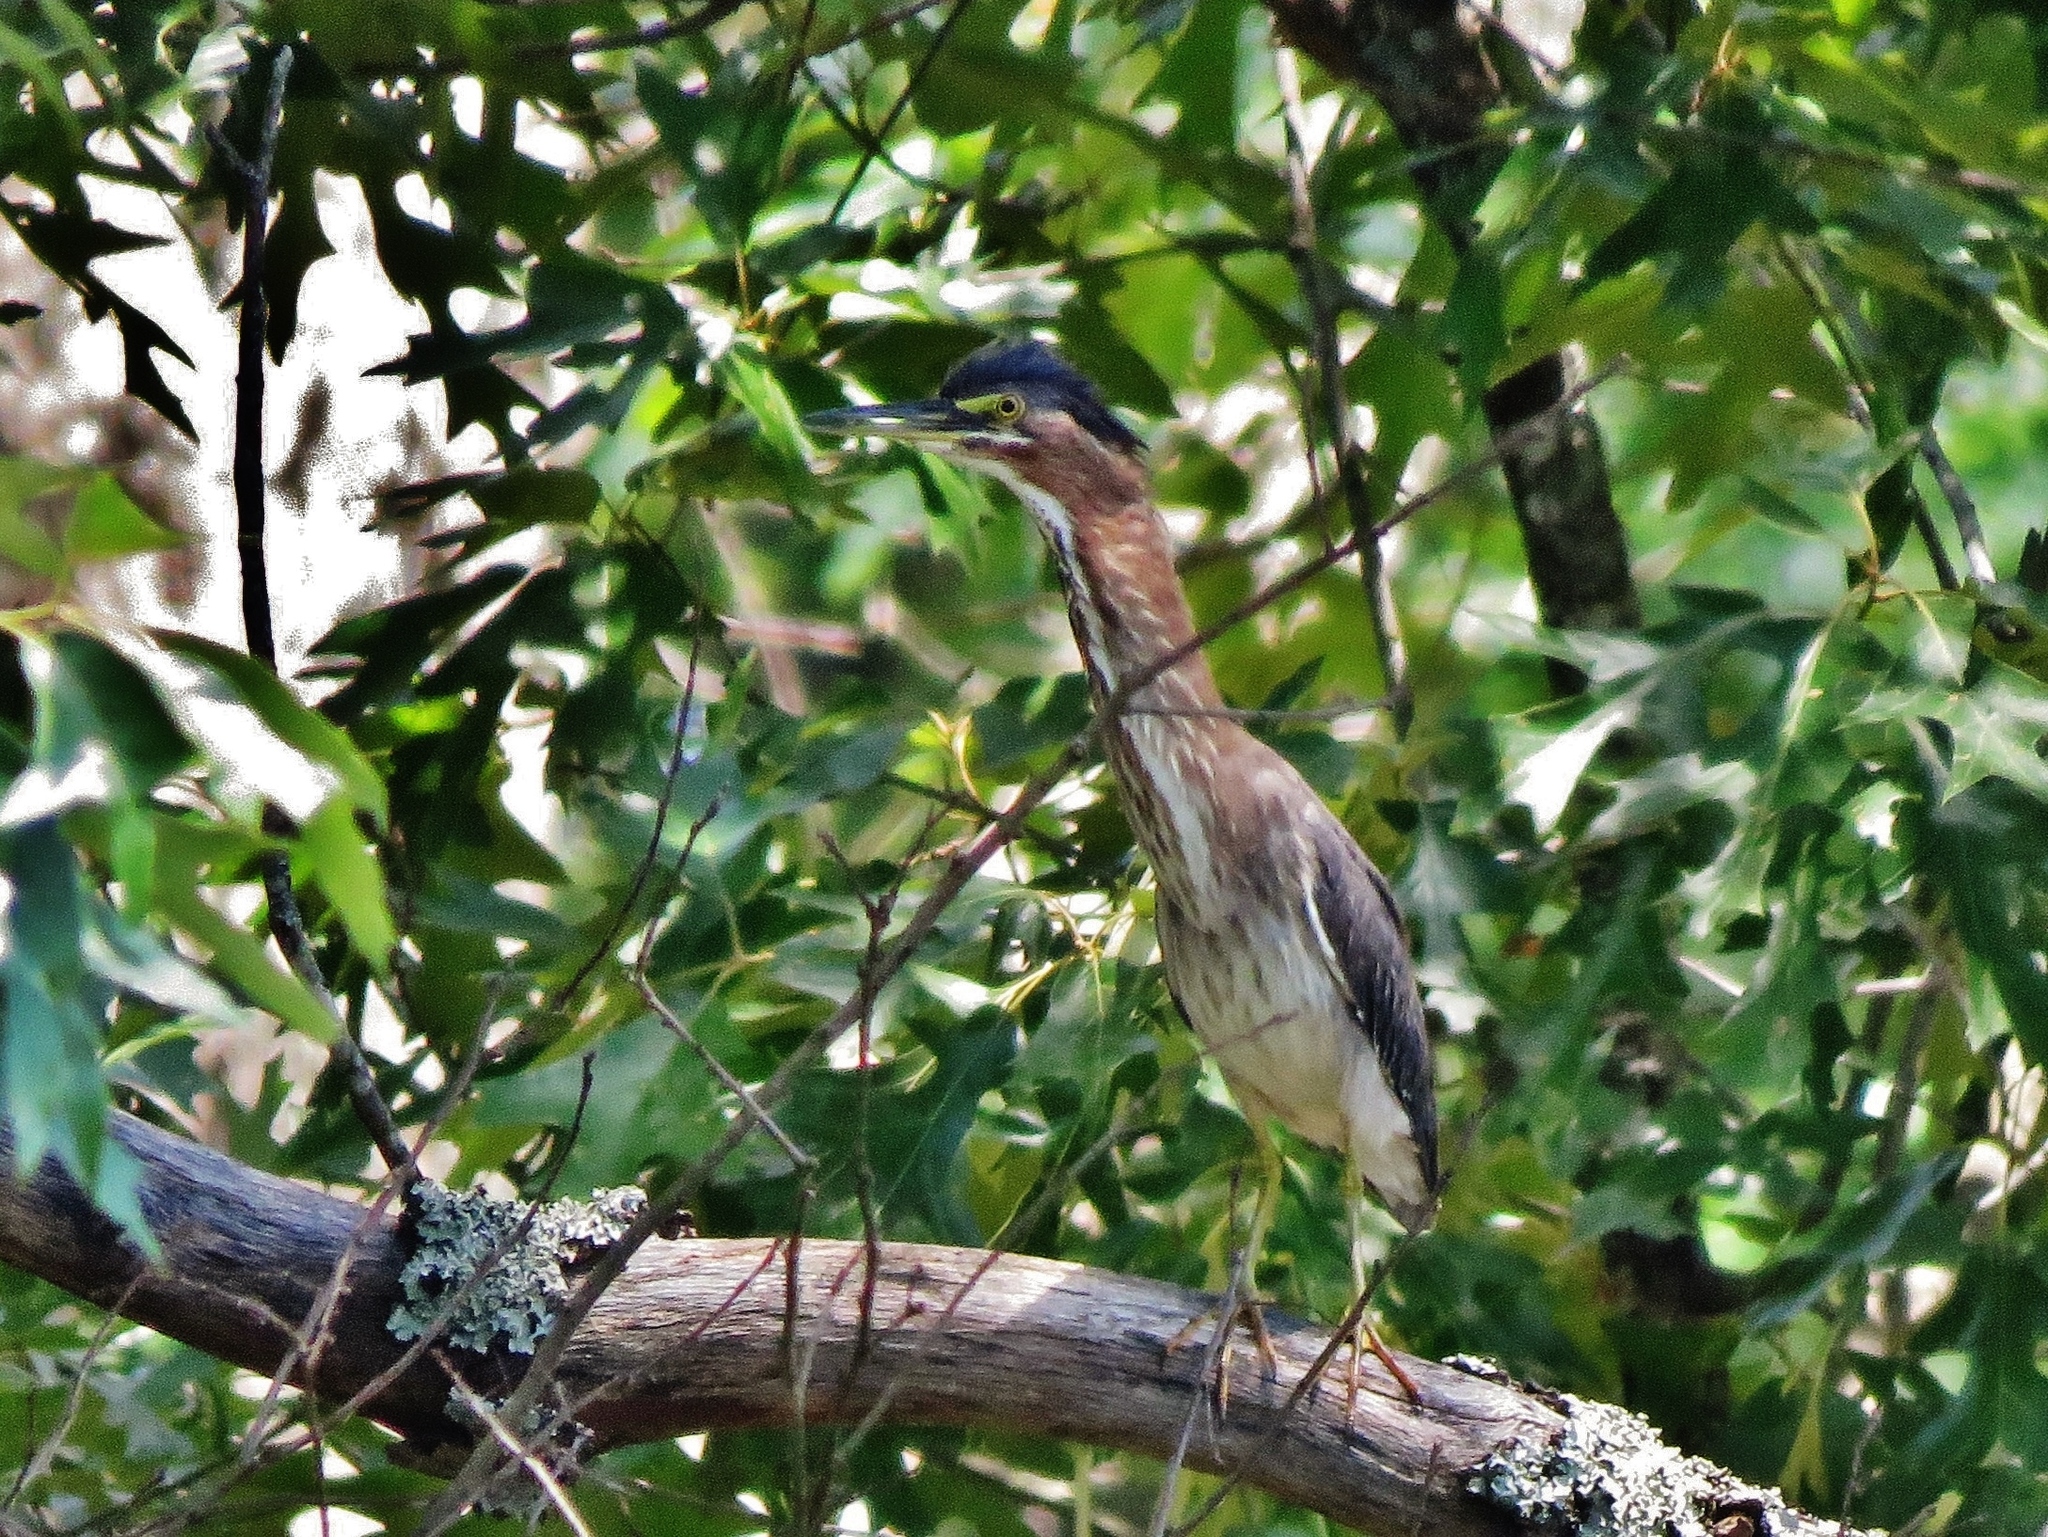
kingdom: Animalia
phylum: Chordata
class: Aves
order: Pelecaniformes
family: Ardeidae
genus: Butorides
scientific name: Butorides virescens
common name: Green heron
